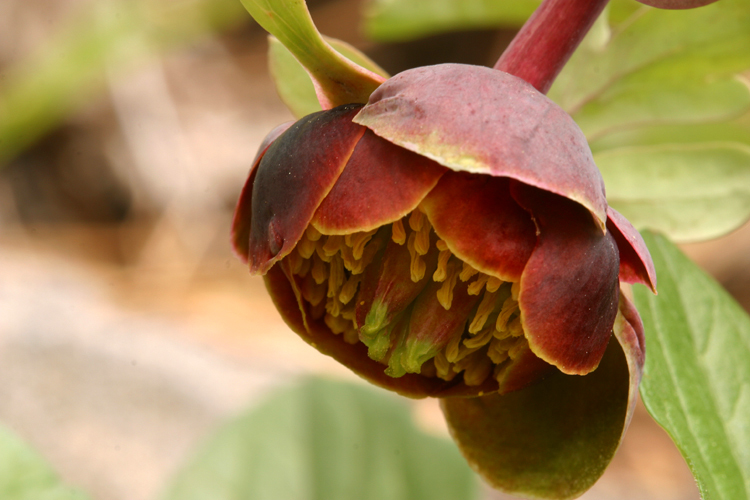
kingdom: Plantae
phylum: Tracheophyta
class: Magnoliopsida
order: Saxifragales
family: Paeoniaceae
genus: Paeonia
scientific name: Paeonia brownii
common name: Brown's peony
